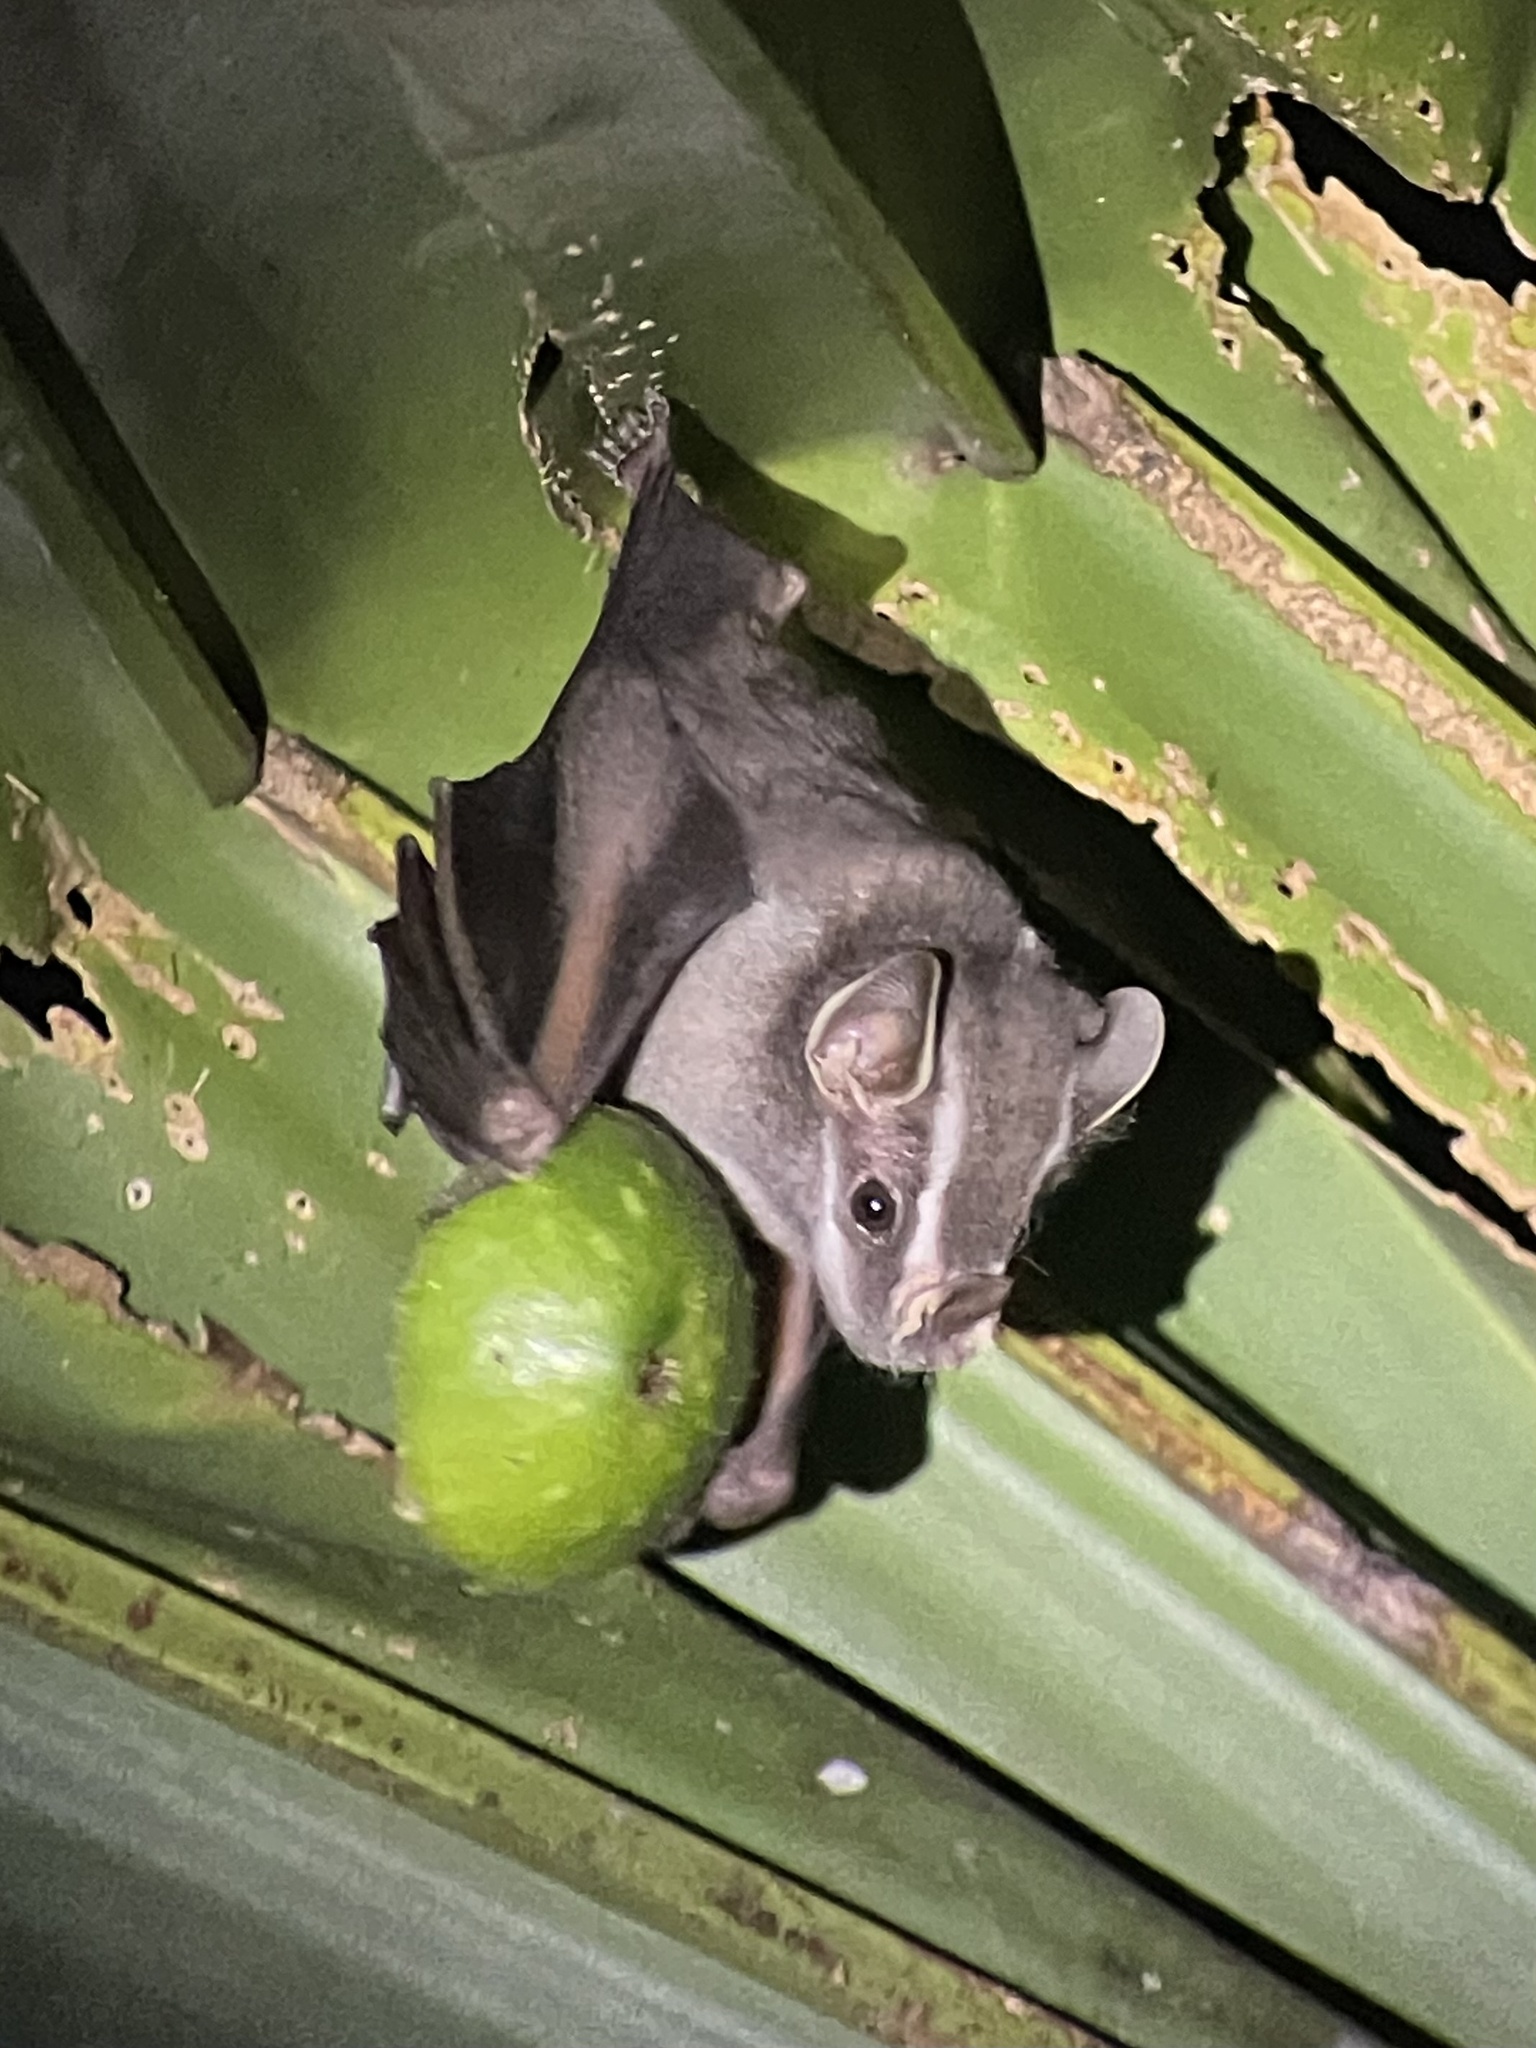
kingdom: Animalia
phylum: Chordata
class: Mammalia
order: Chiroptera
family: Phyllostomidae
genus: Uroderma
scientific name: Uroderma bilobatum
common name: Common tent-making bat
